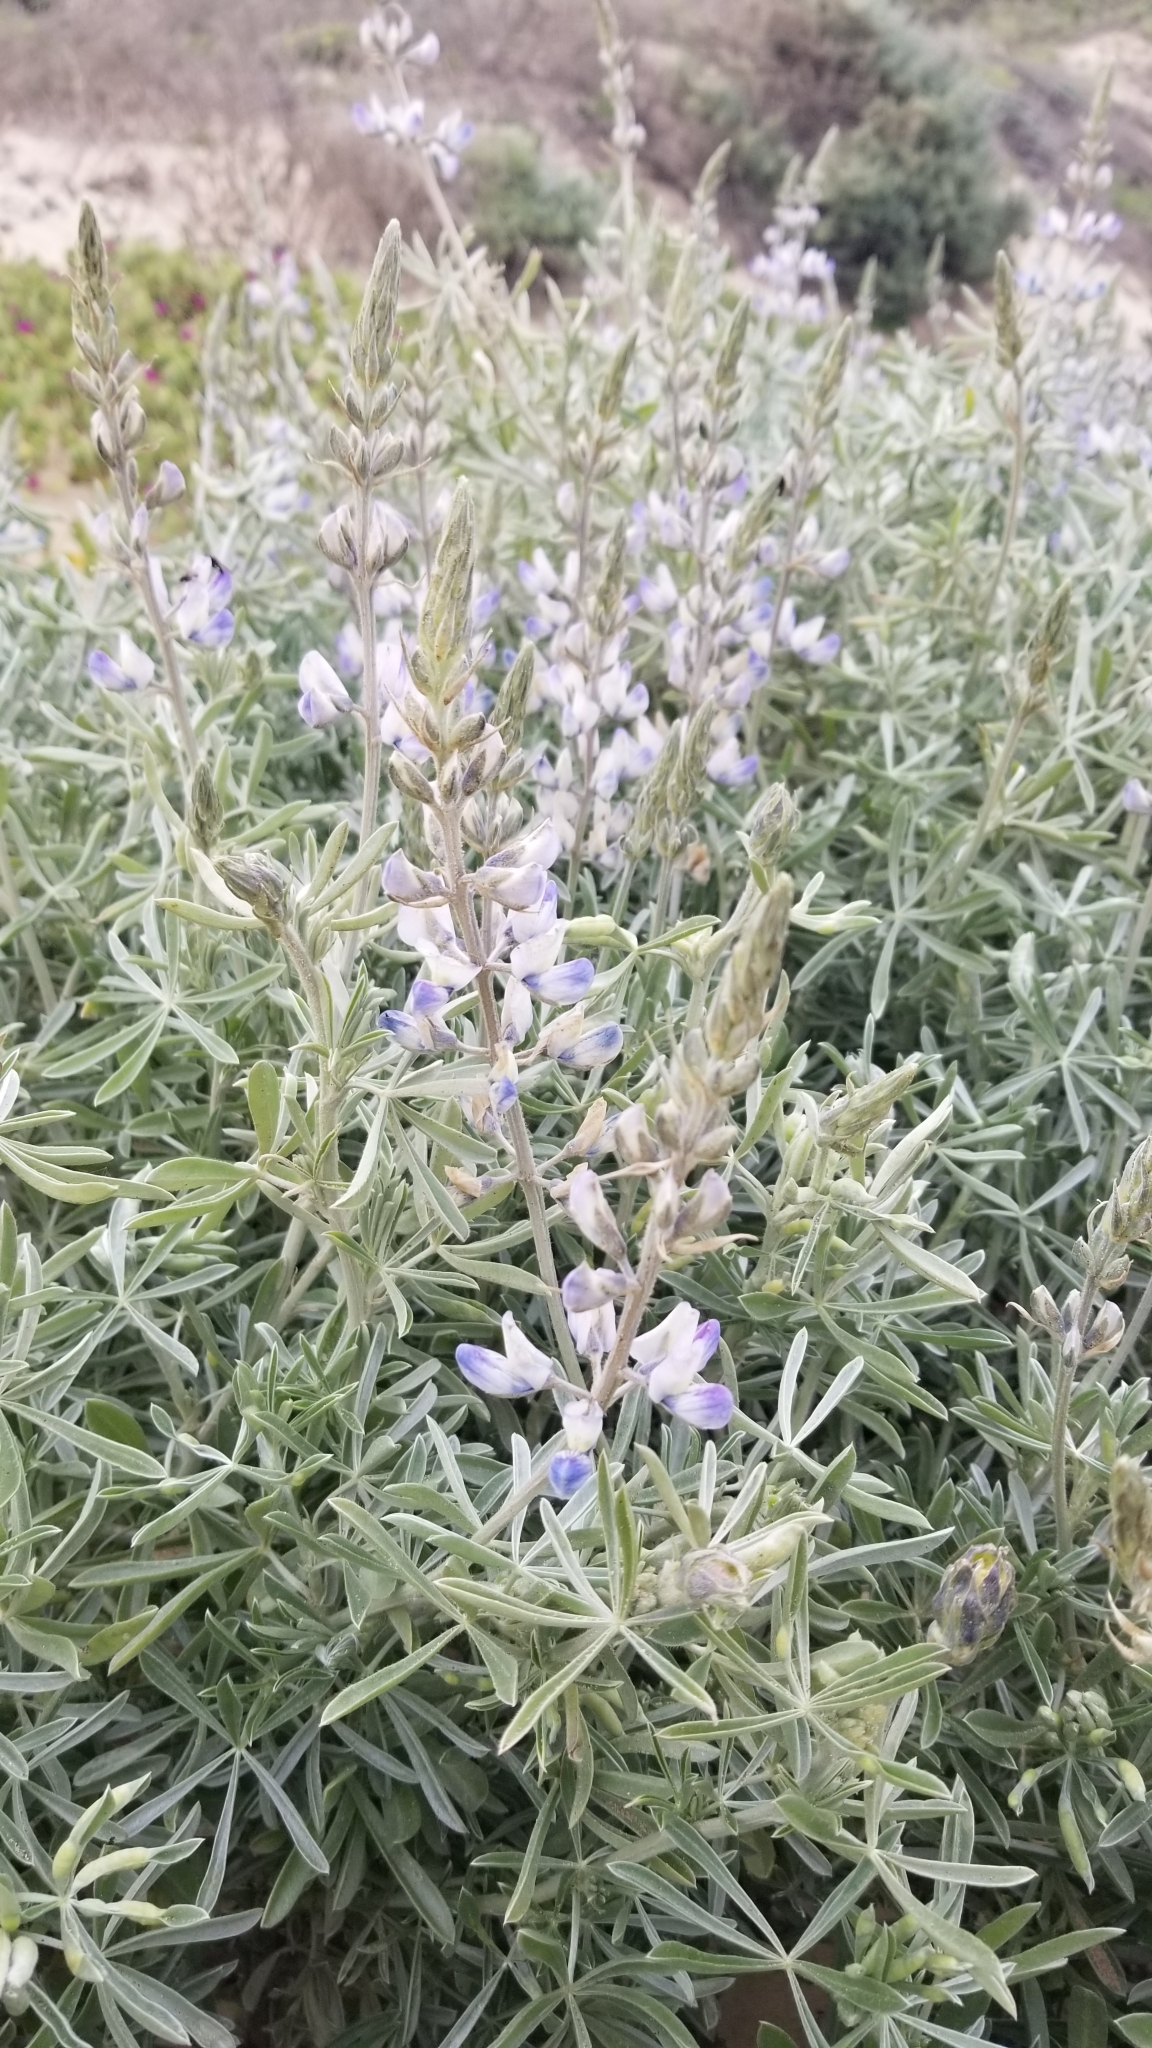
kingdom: Plantae
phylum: Tracheophyta
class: Magnoliopsida
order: Fabales
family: Fabaceae
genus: Lupinus
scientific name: Lupinus chamissonis
